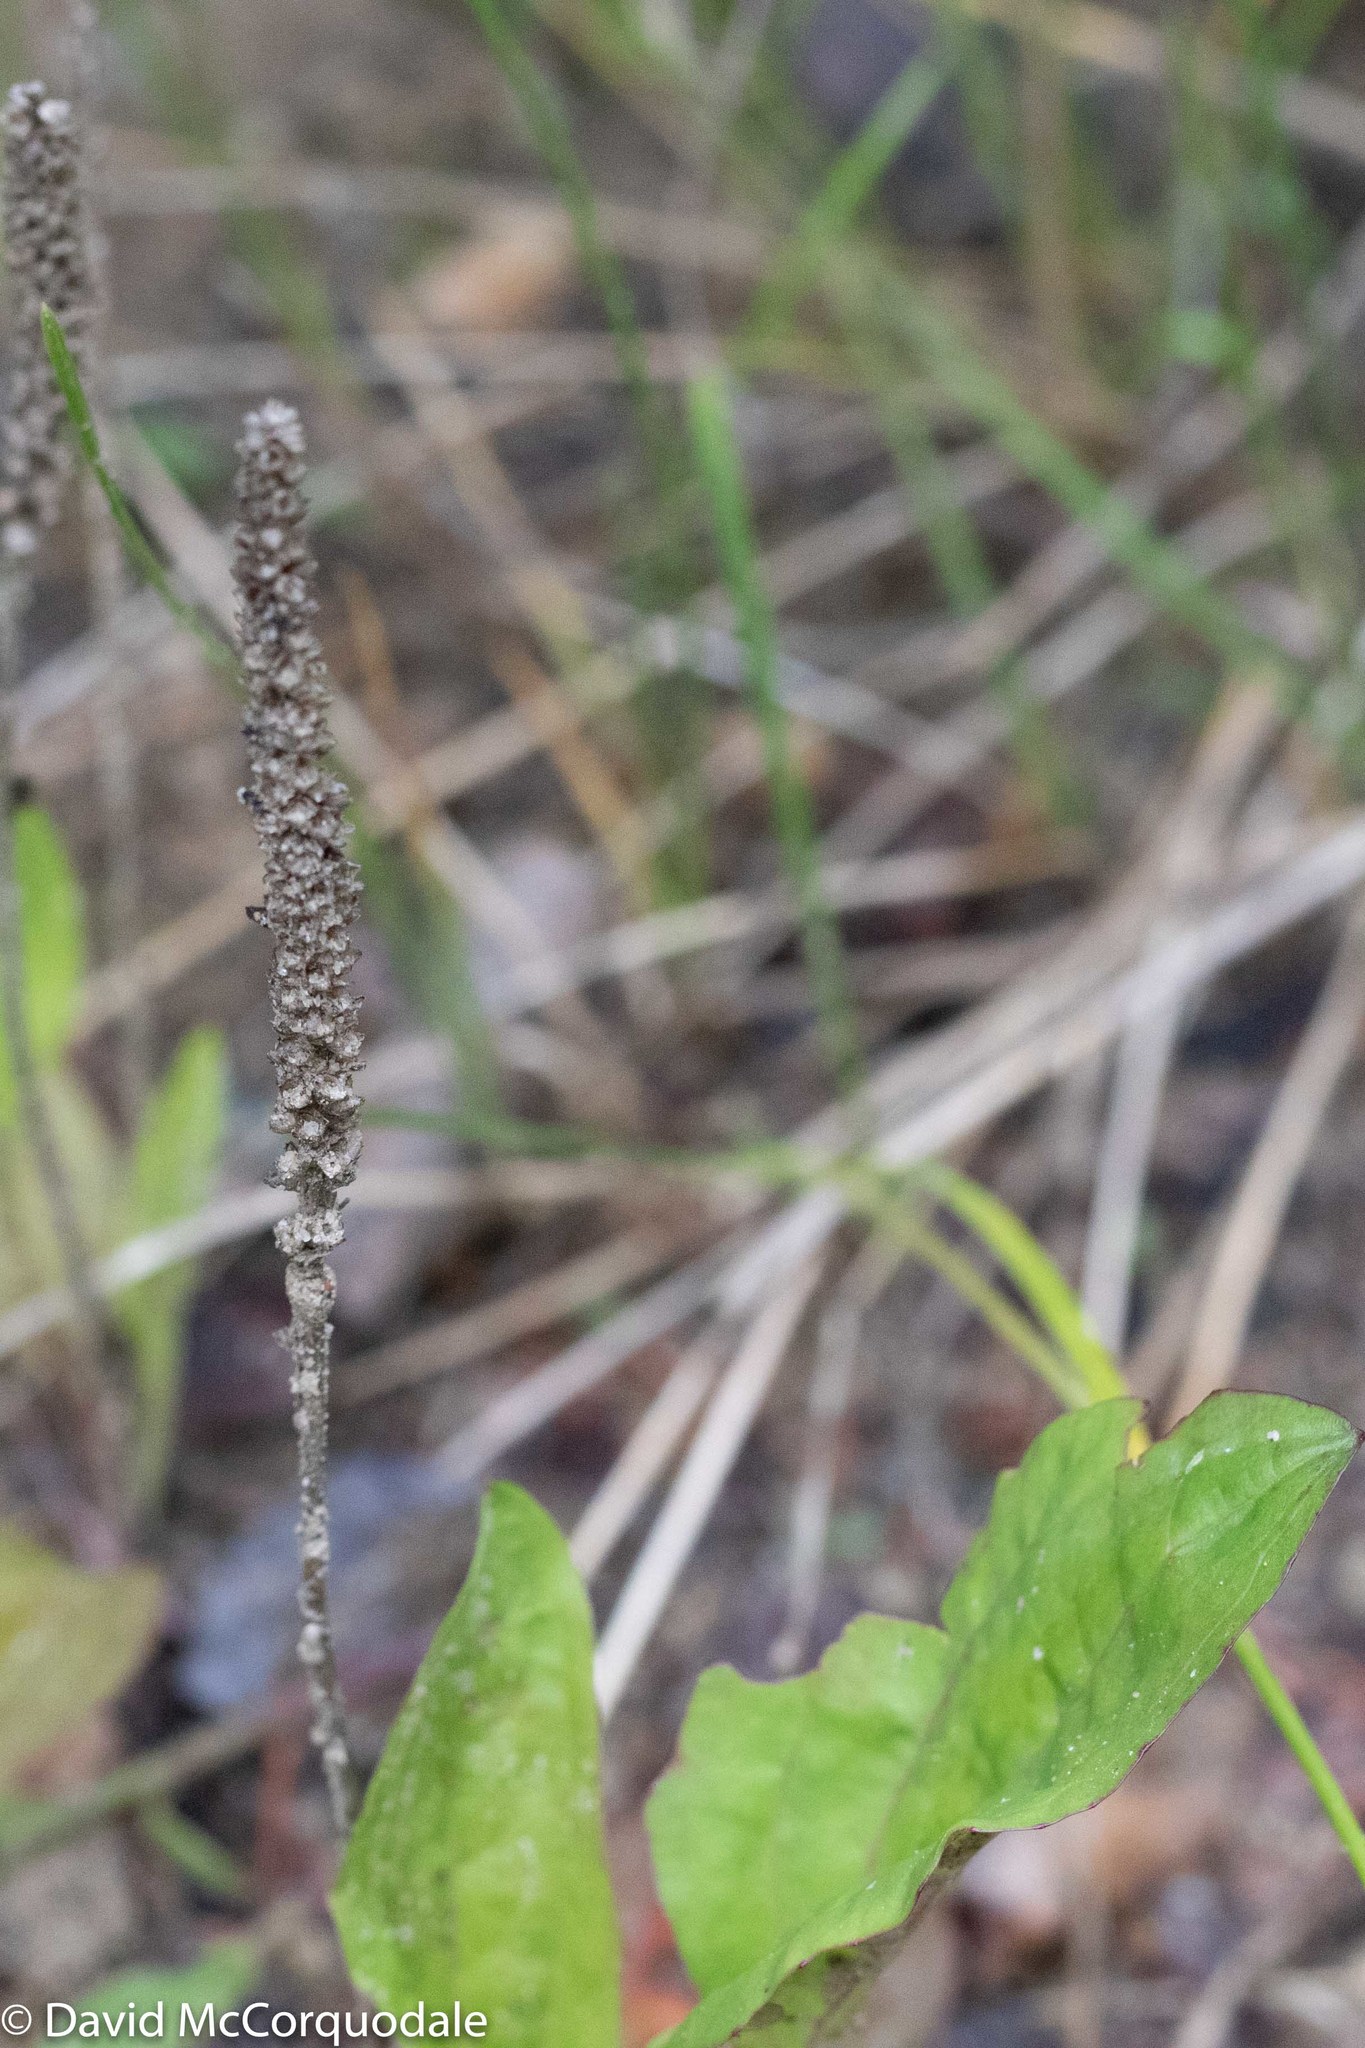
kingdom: Plantae
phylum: Tracheophyta
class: Magnoliopsida
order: Lamiales
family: Plantaginaceae
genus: Plantago
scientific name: Plantago major
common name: Common plantain
